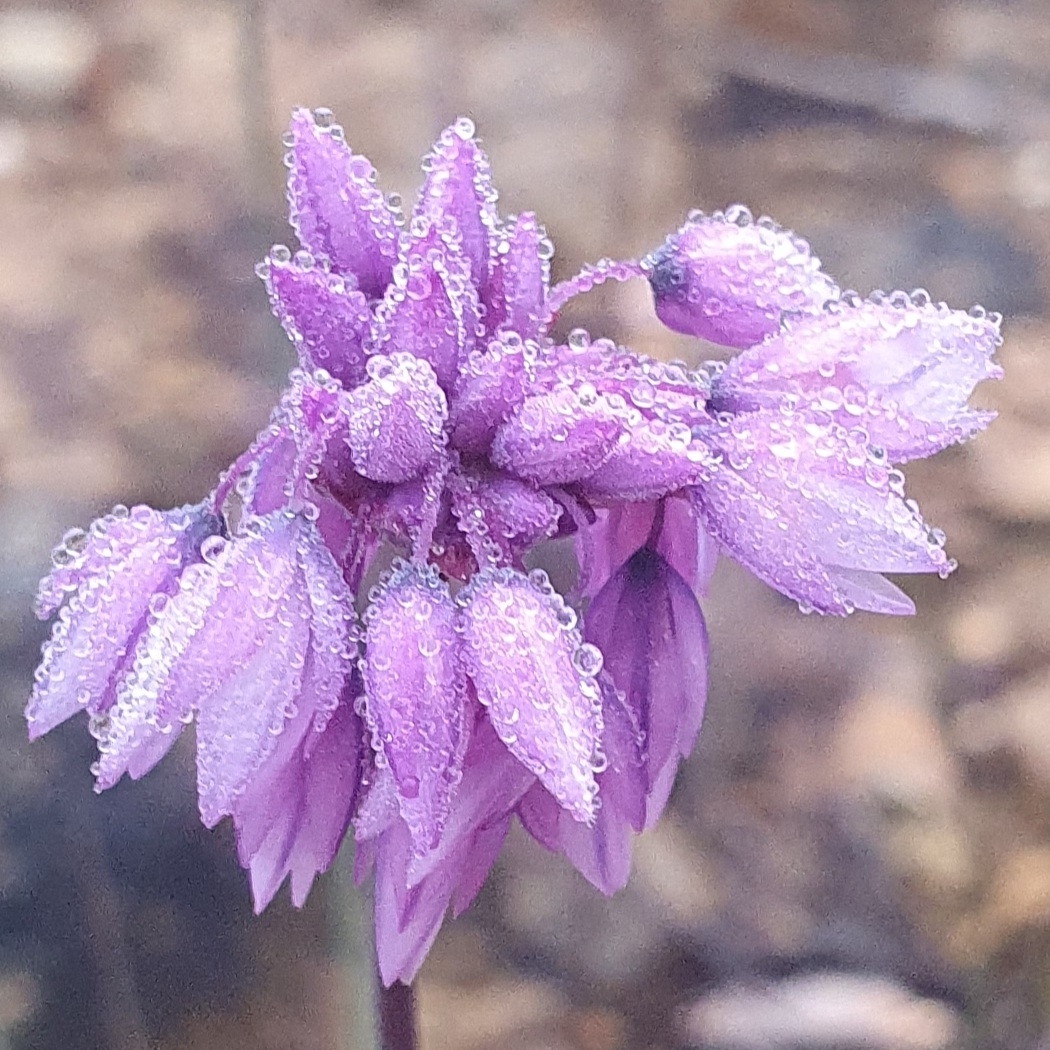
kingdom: Plantae
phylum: Tracheophyta
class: Liliopsida
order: Asparagales
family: Asparagaceae
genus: Sowerbaea
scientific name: Sowerbaea juncea
